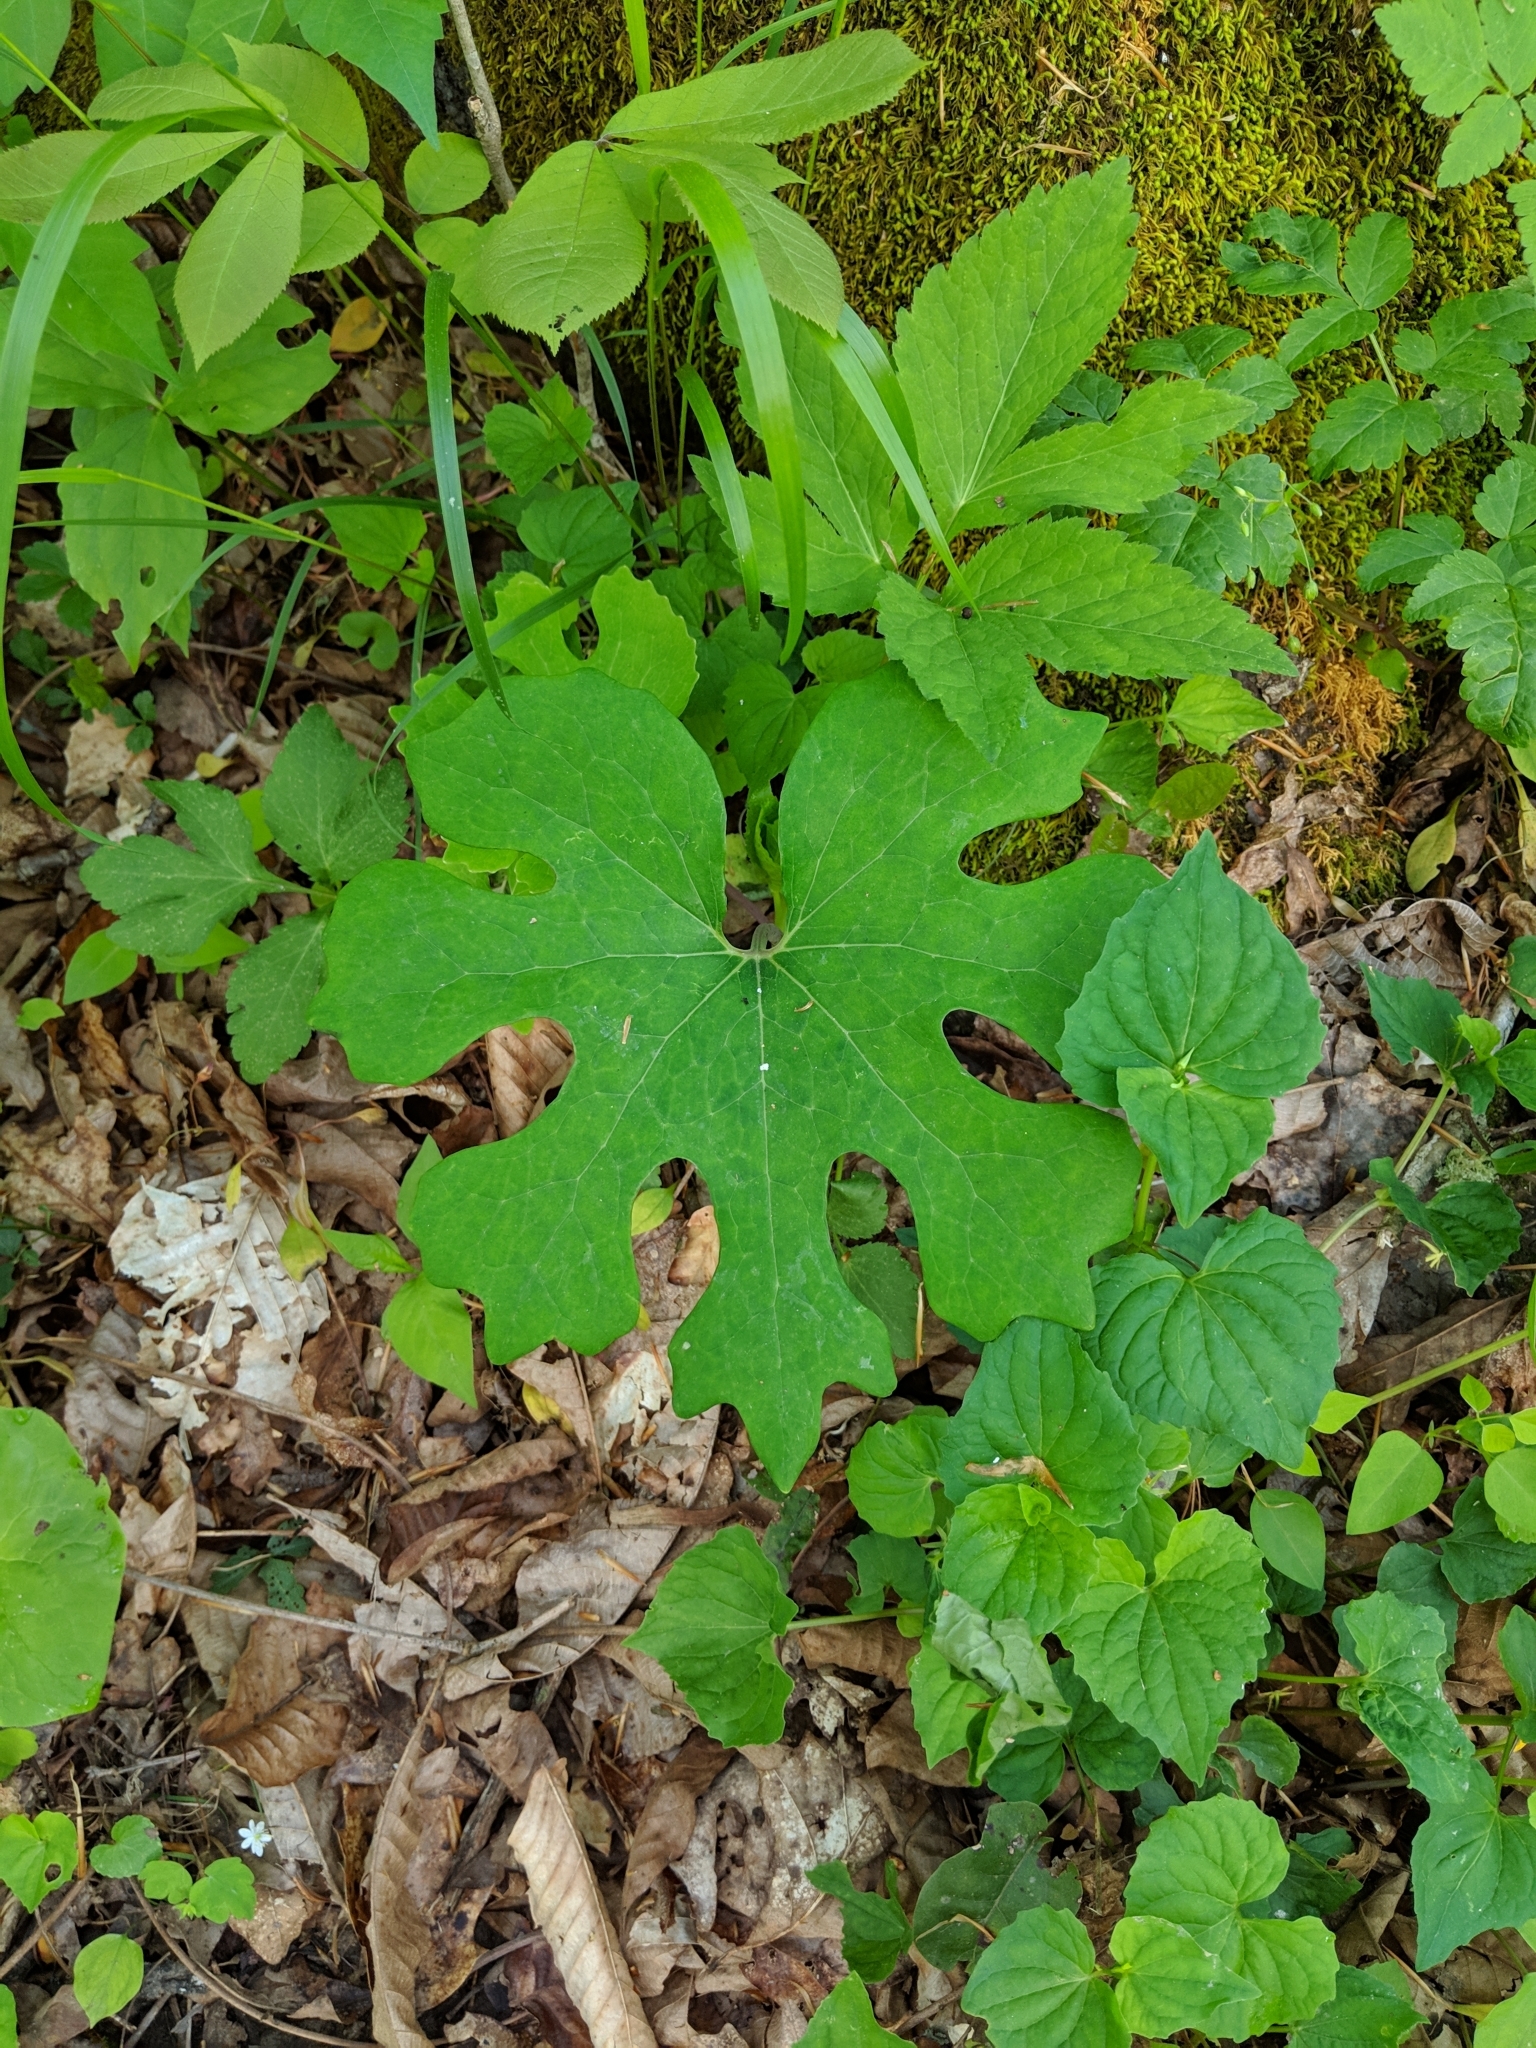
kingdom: Plantae
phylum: Tracheophyta
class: Magnoliopsida
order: Ranunculales
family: Papaveraceae
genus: Sanguinaria
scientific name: Sanguinaria canadensis
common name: Bloodroot
